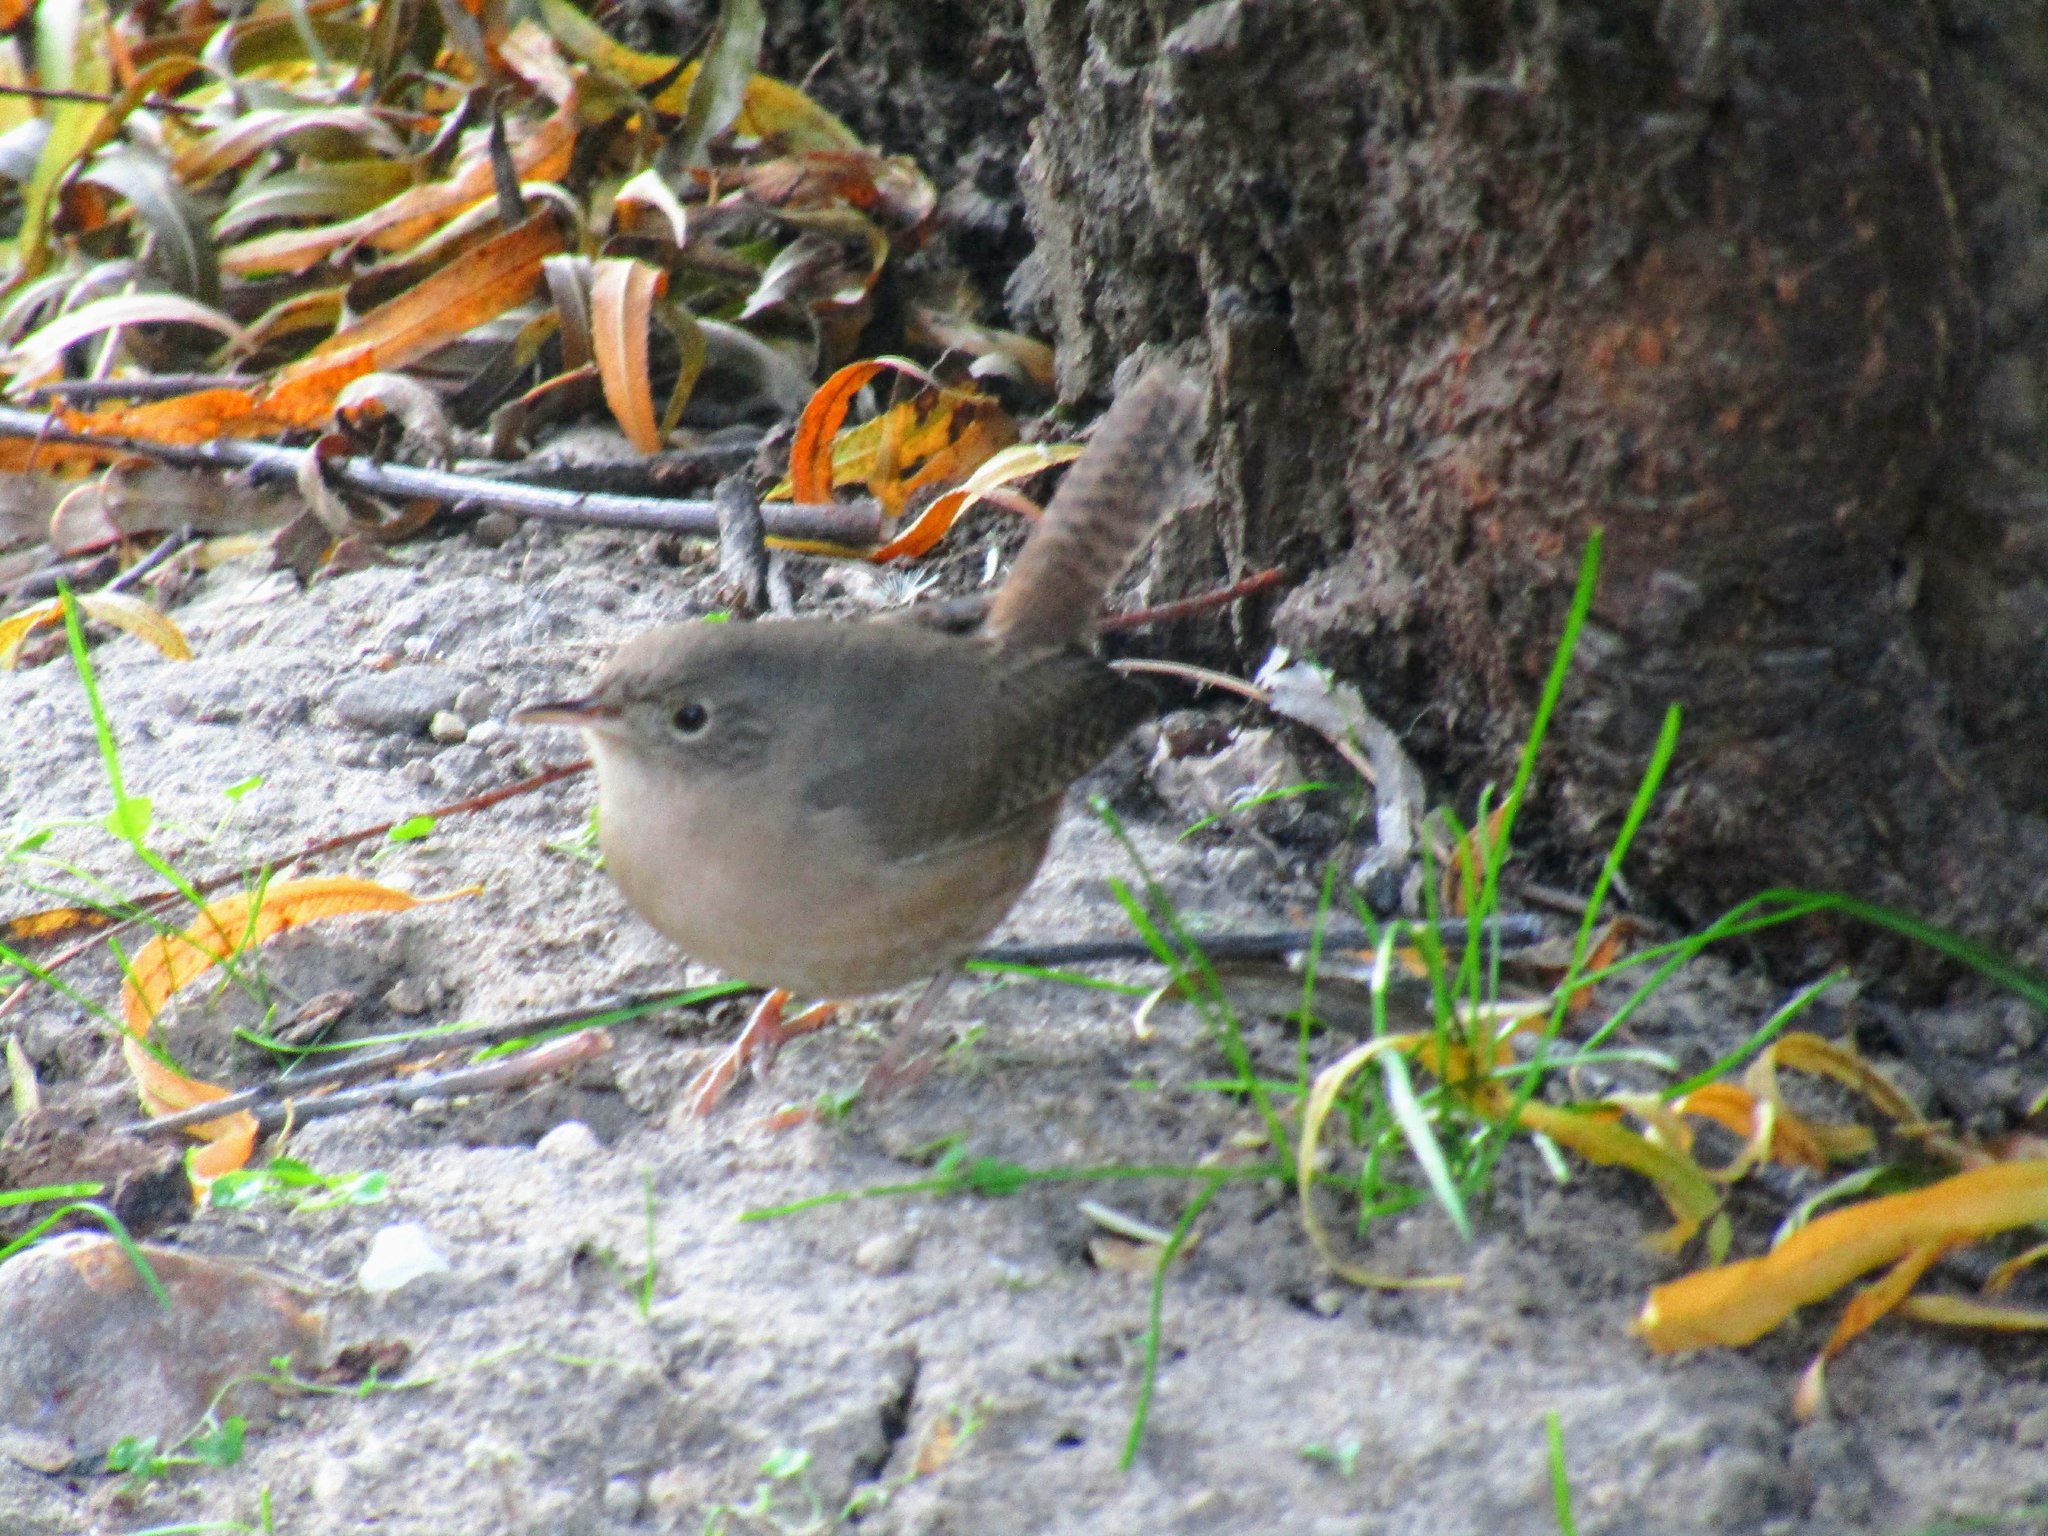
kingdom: Animalia
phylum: Chordata
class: Aves
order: Passeriformes
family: Troglodytidae
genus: Troglodytes
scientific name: Troglodytes aedon
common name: House wren
